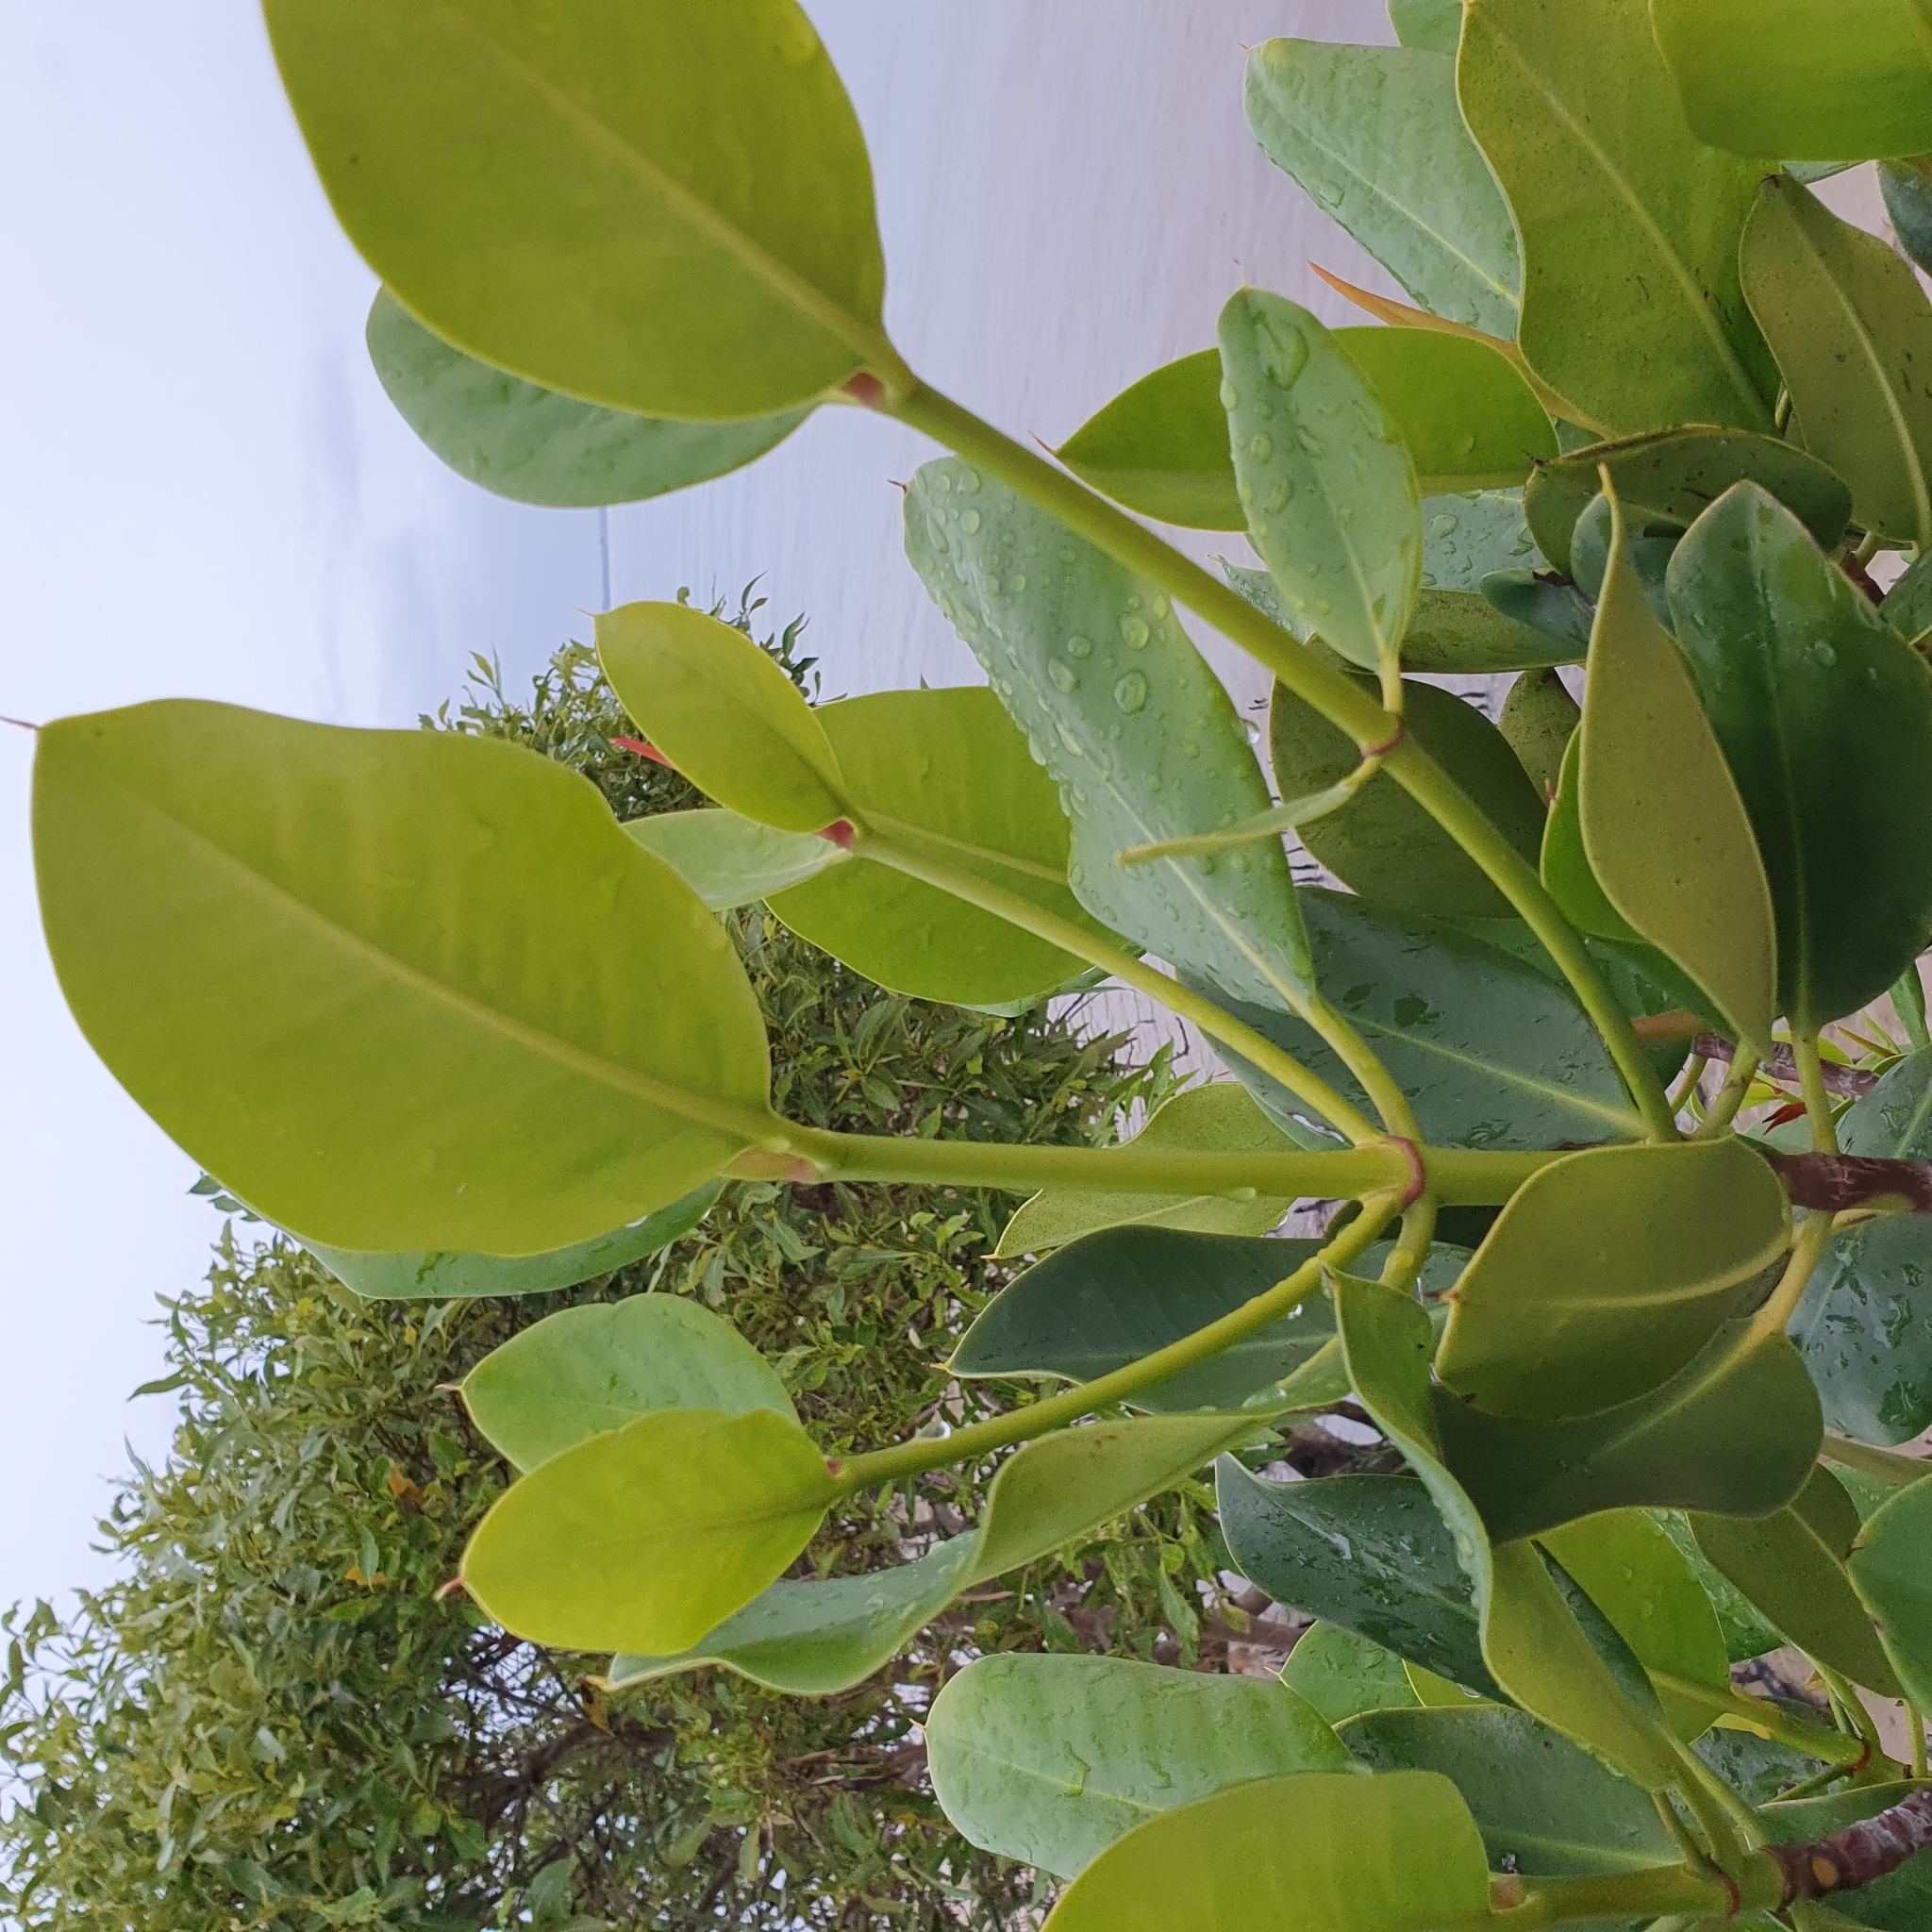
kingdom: Plantae
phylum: Tracheophyta
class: Magnoliopsida
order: Malpighiales
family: Rhizophoraceae
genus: Rhizophora
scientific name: Rhizophora stylosa
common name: Red mangrove
